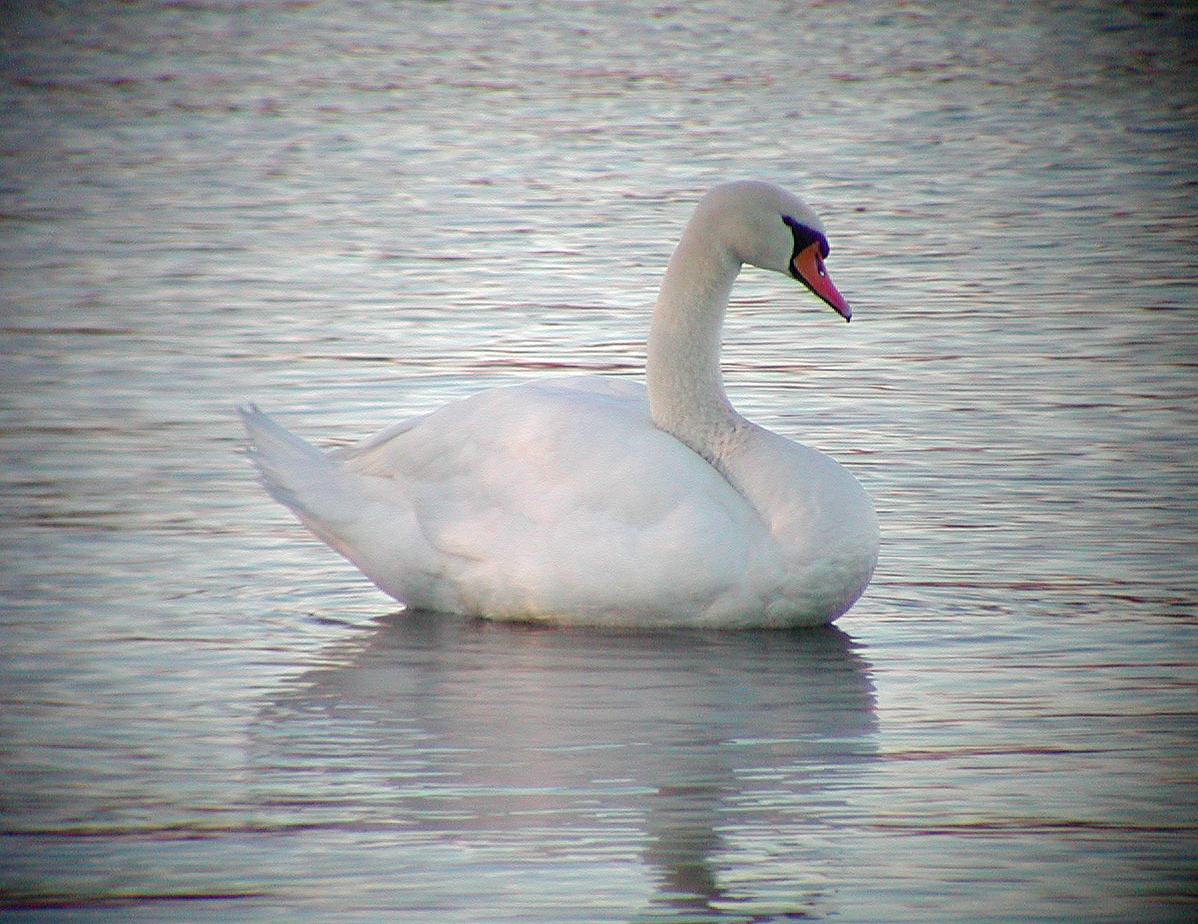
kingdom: Animalia
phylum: Chordata
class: Aves
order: Anseriformes
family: Anatidae
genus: Cygnus
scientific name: Cygnus olor
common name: Mute swan
